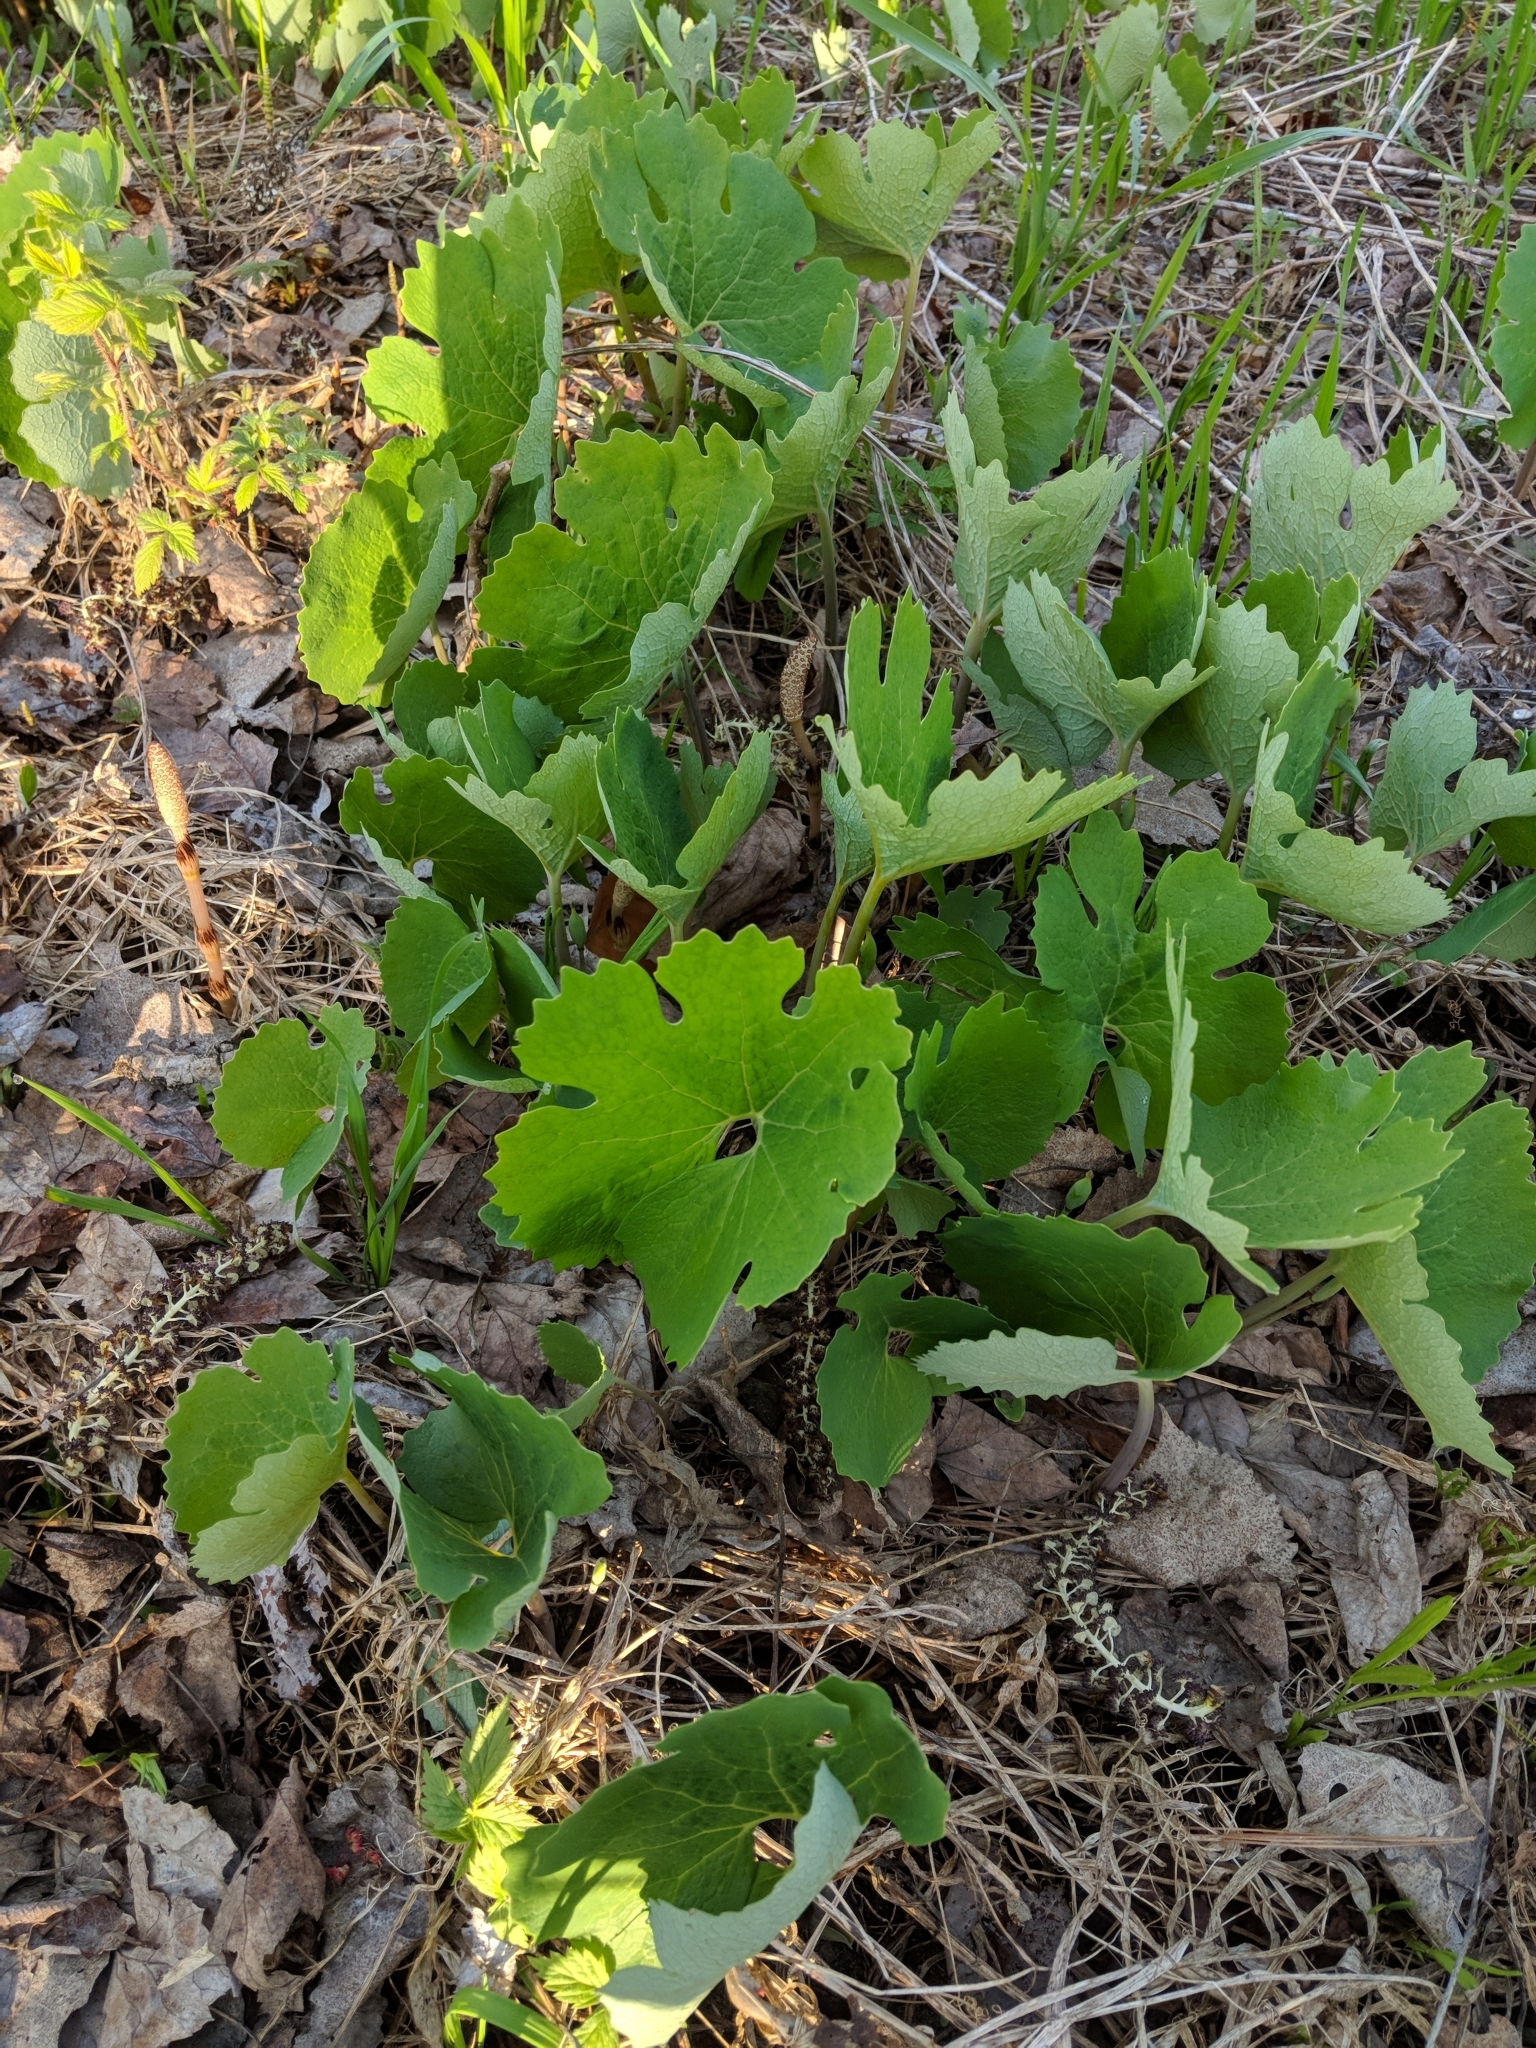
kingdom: Plantae
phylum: Tracheophyta
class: Magnoliopsida
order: Ranunculales
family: Papaveraceae
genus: Sanguinaria
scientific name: Sanguinaria canadensis
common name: Bloodroot
